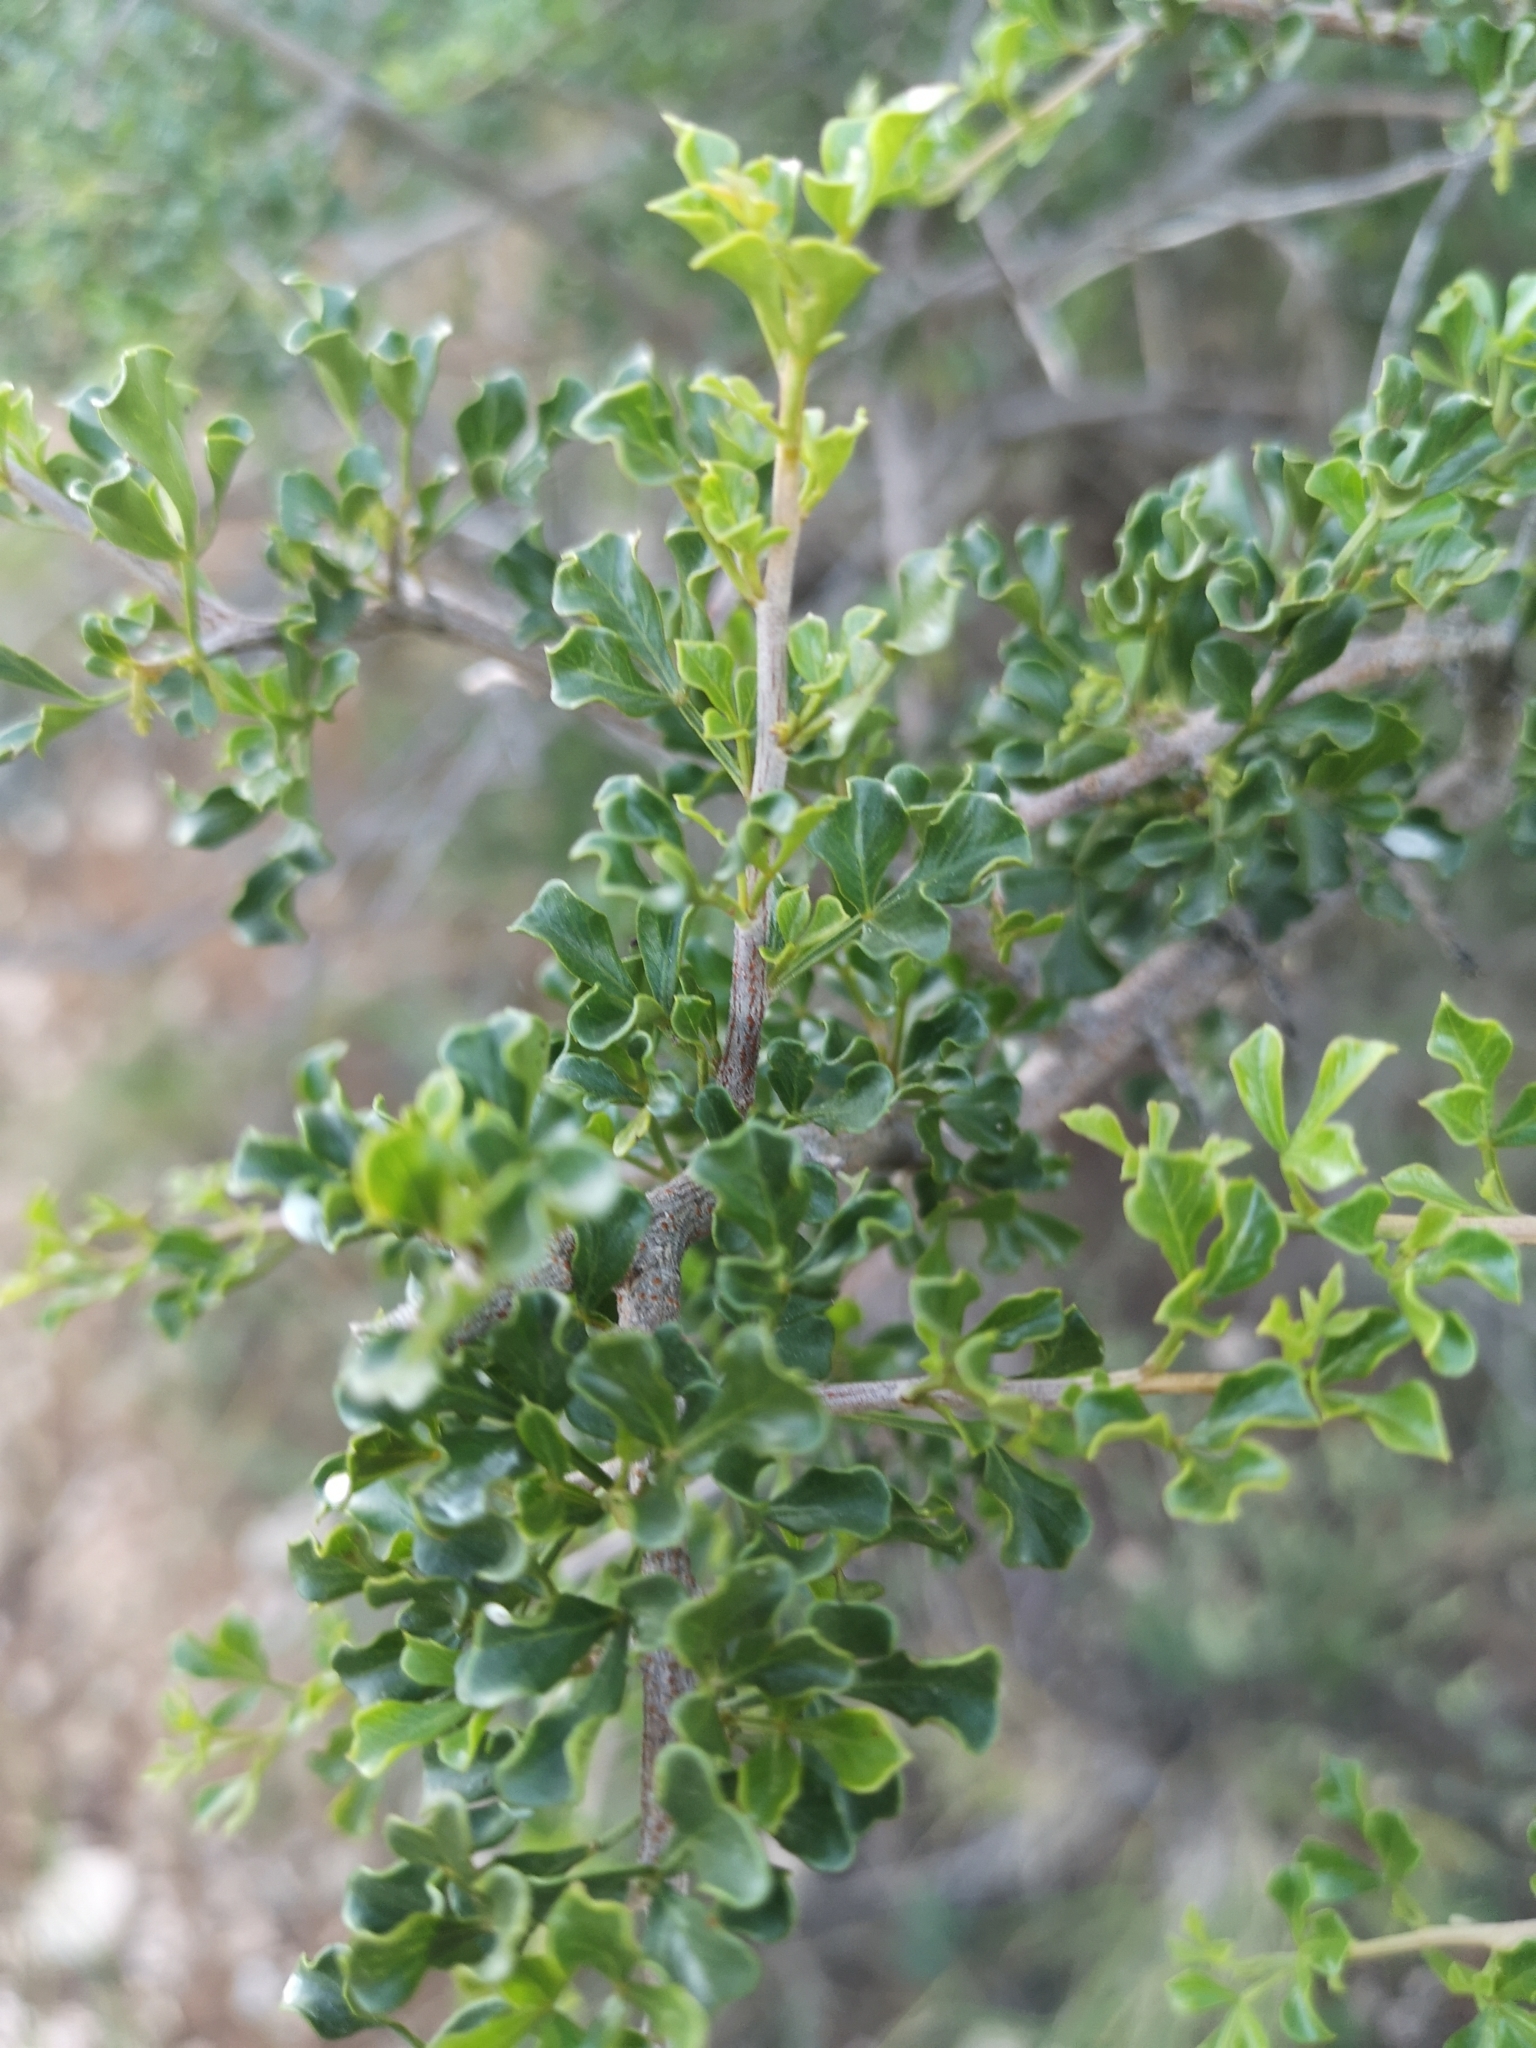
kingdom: Plantae
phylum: Tracheophyta
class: Magnoliopsida
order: Sapindales
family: Anacardiaceae
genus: Searsia
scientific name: Searsia burchellii
